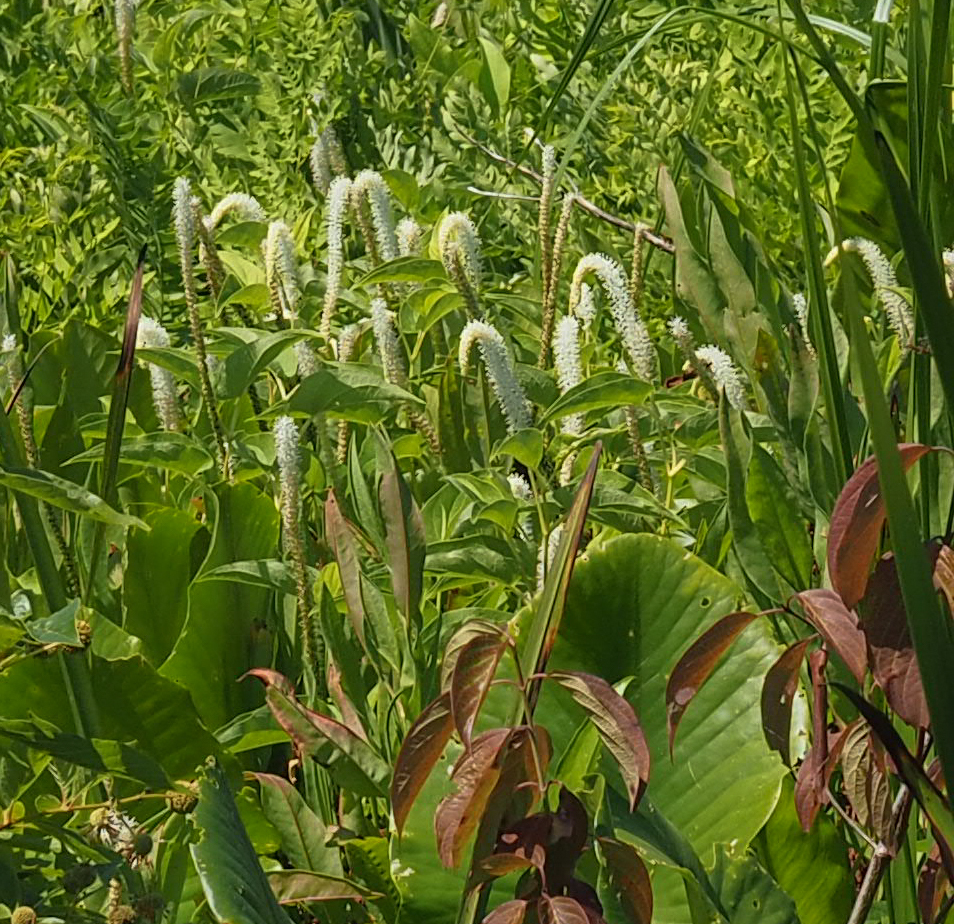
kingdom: Plantae
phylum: Tracheophyta
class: Magnoliopsida
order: Piperales
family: Saururaceae
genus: Saururus
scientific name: Saururus cernuus
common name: Lizard's-tail
